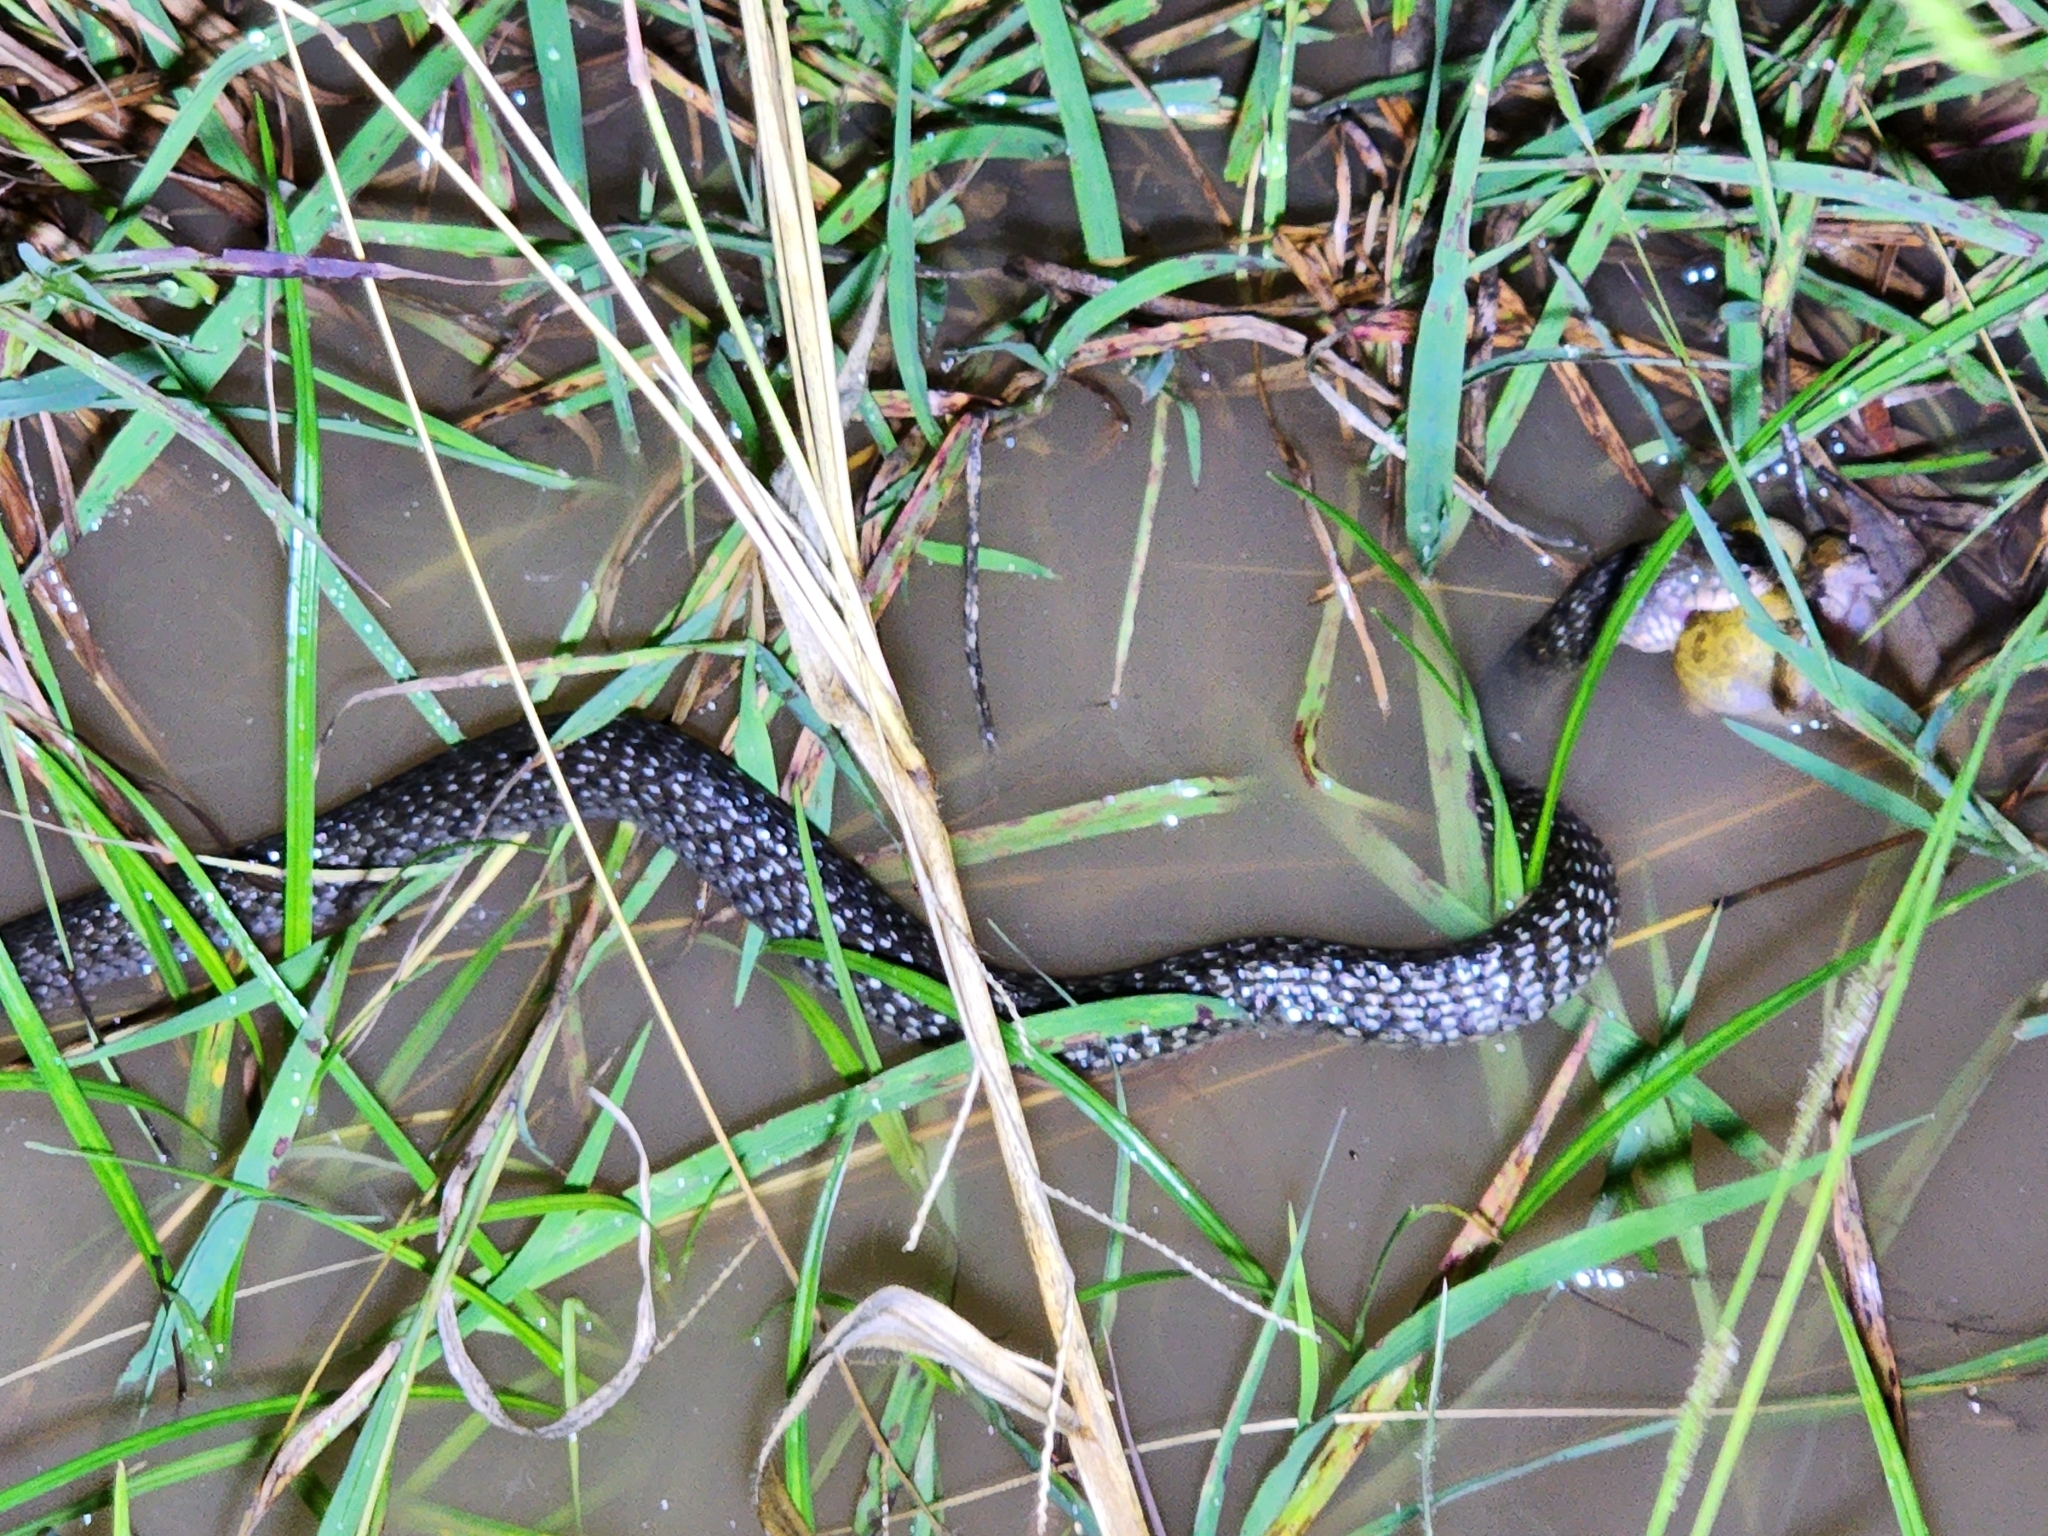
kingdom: Animalia
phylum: Chordata
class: Squamata
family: Colubridae
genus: Tropidonophis
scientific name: Tropidonophis mairii
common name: Common keelback
